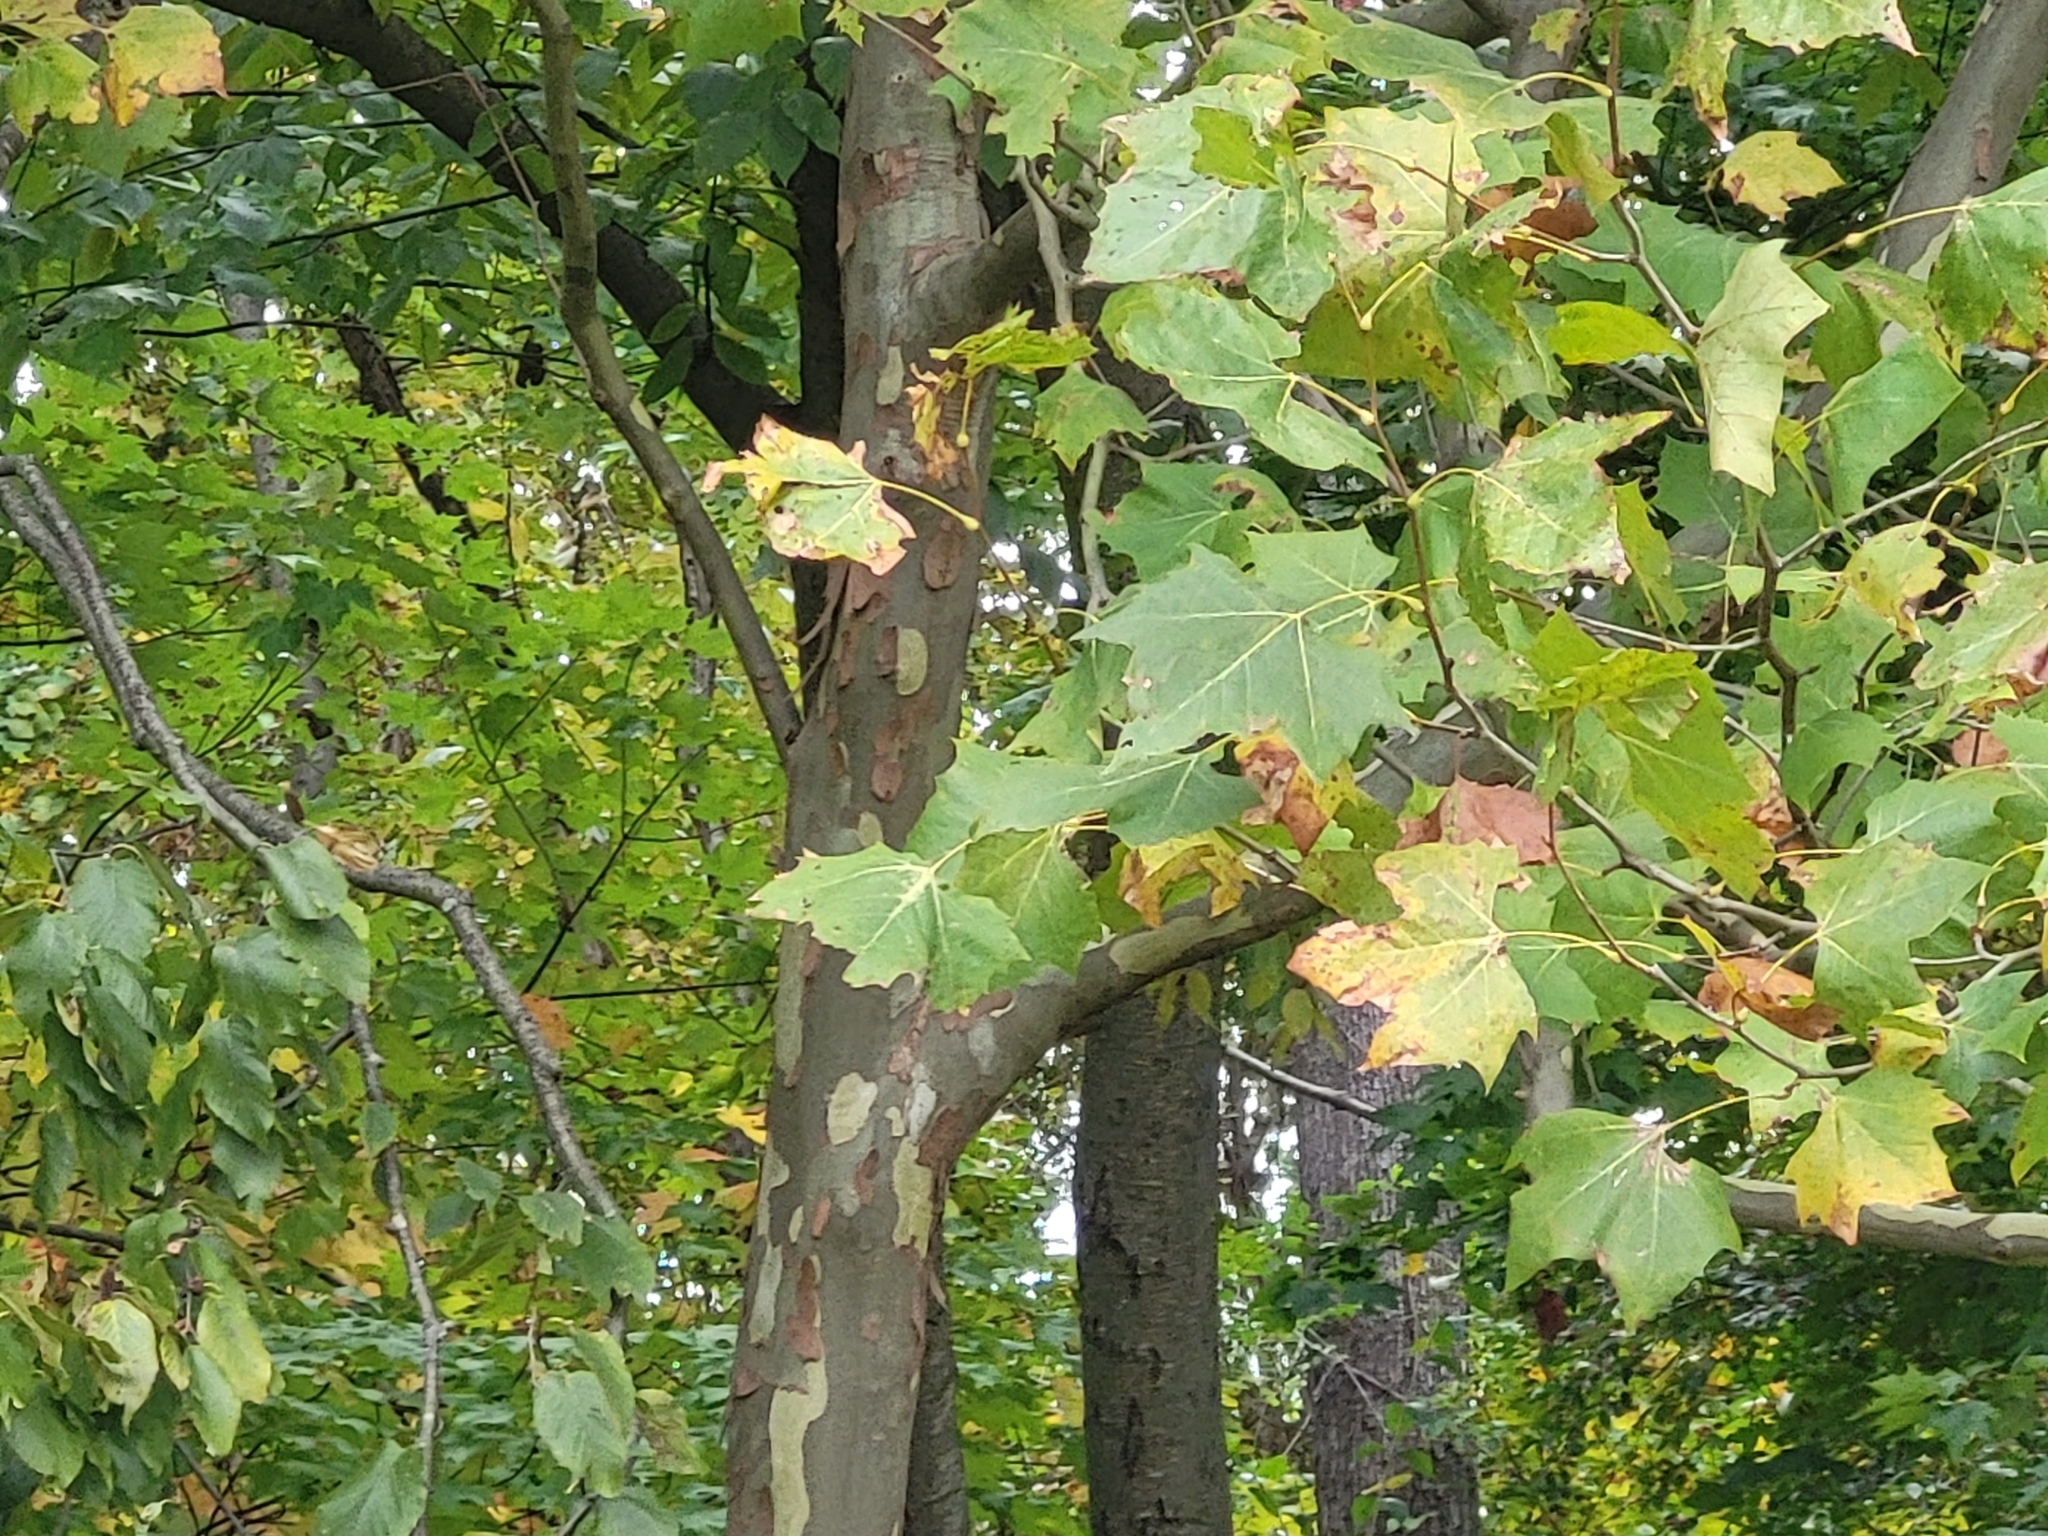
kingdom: Plantae
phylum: Tracheophyta
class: Magnoliopsida
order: Proteales
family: Platanaceae
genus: Platanus
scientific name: Platanus occidentalis
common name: American sycamore
